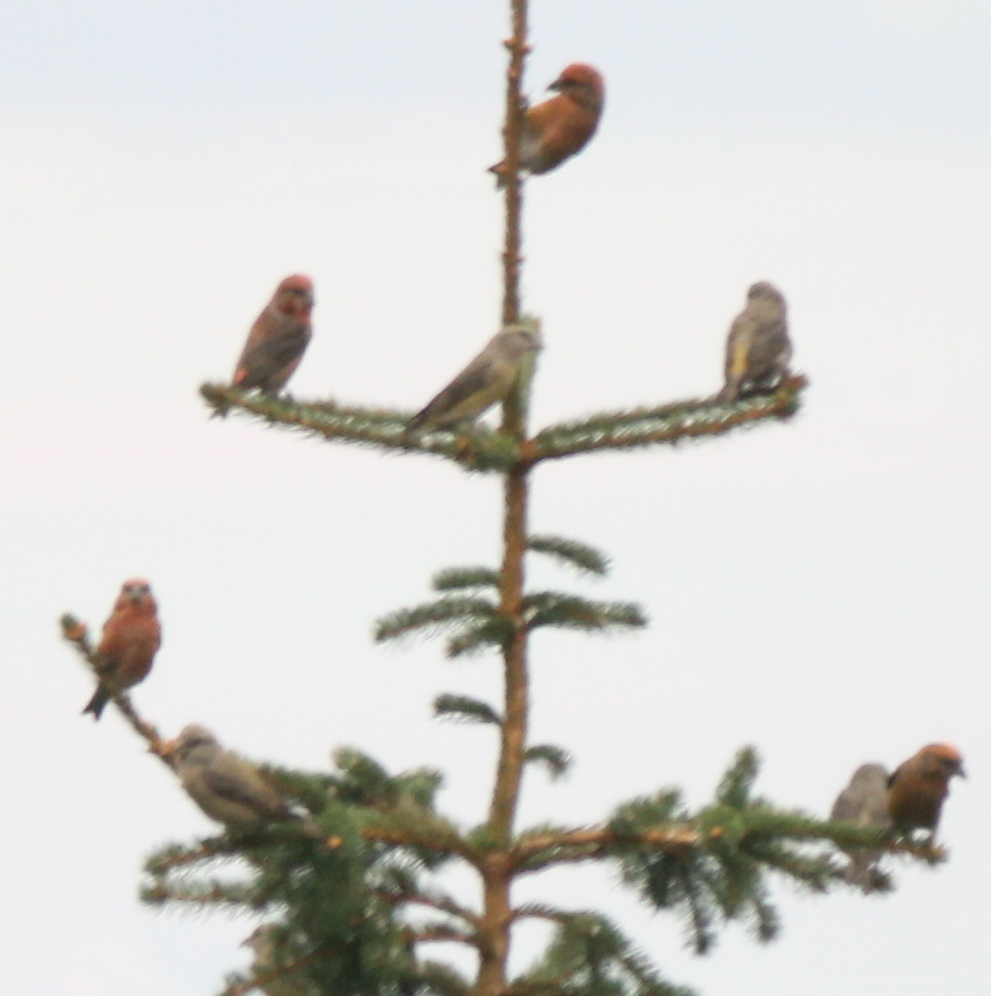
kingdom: Animalia
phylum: Chordata
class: Aves
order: Passeriformes
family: Fringillidae
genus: Loxia
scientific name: Loxia curvirostra
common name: Red crossbill
